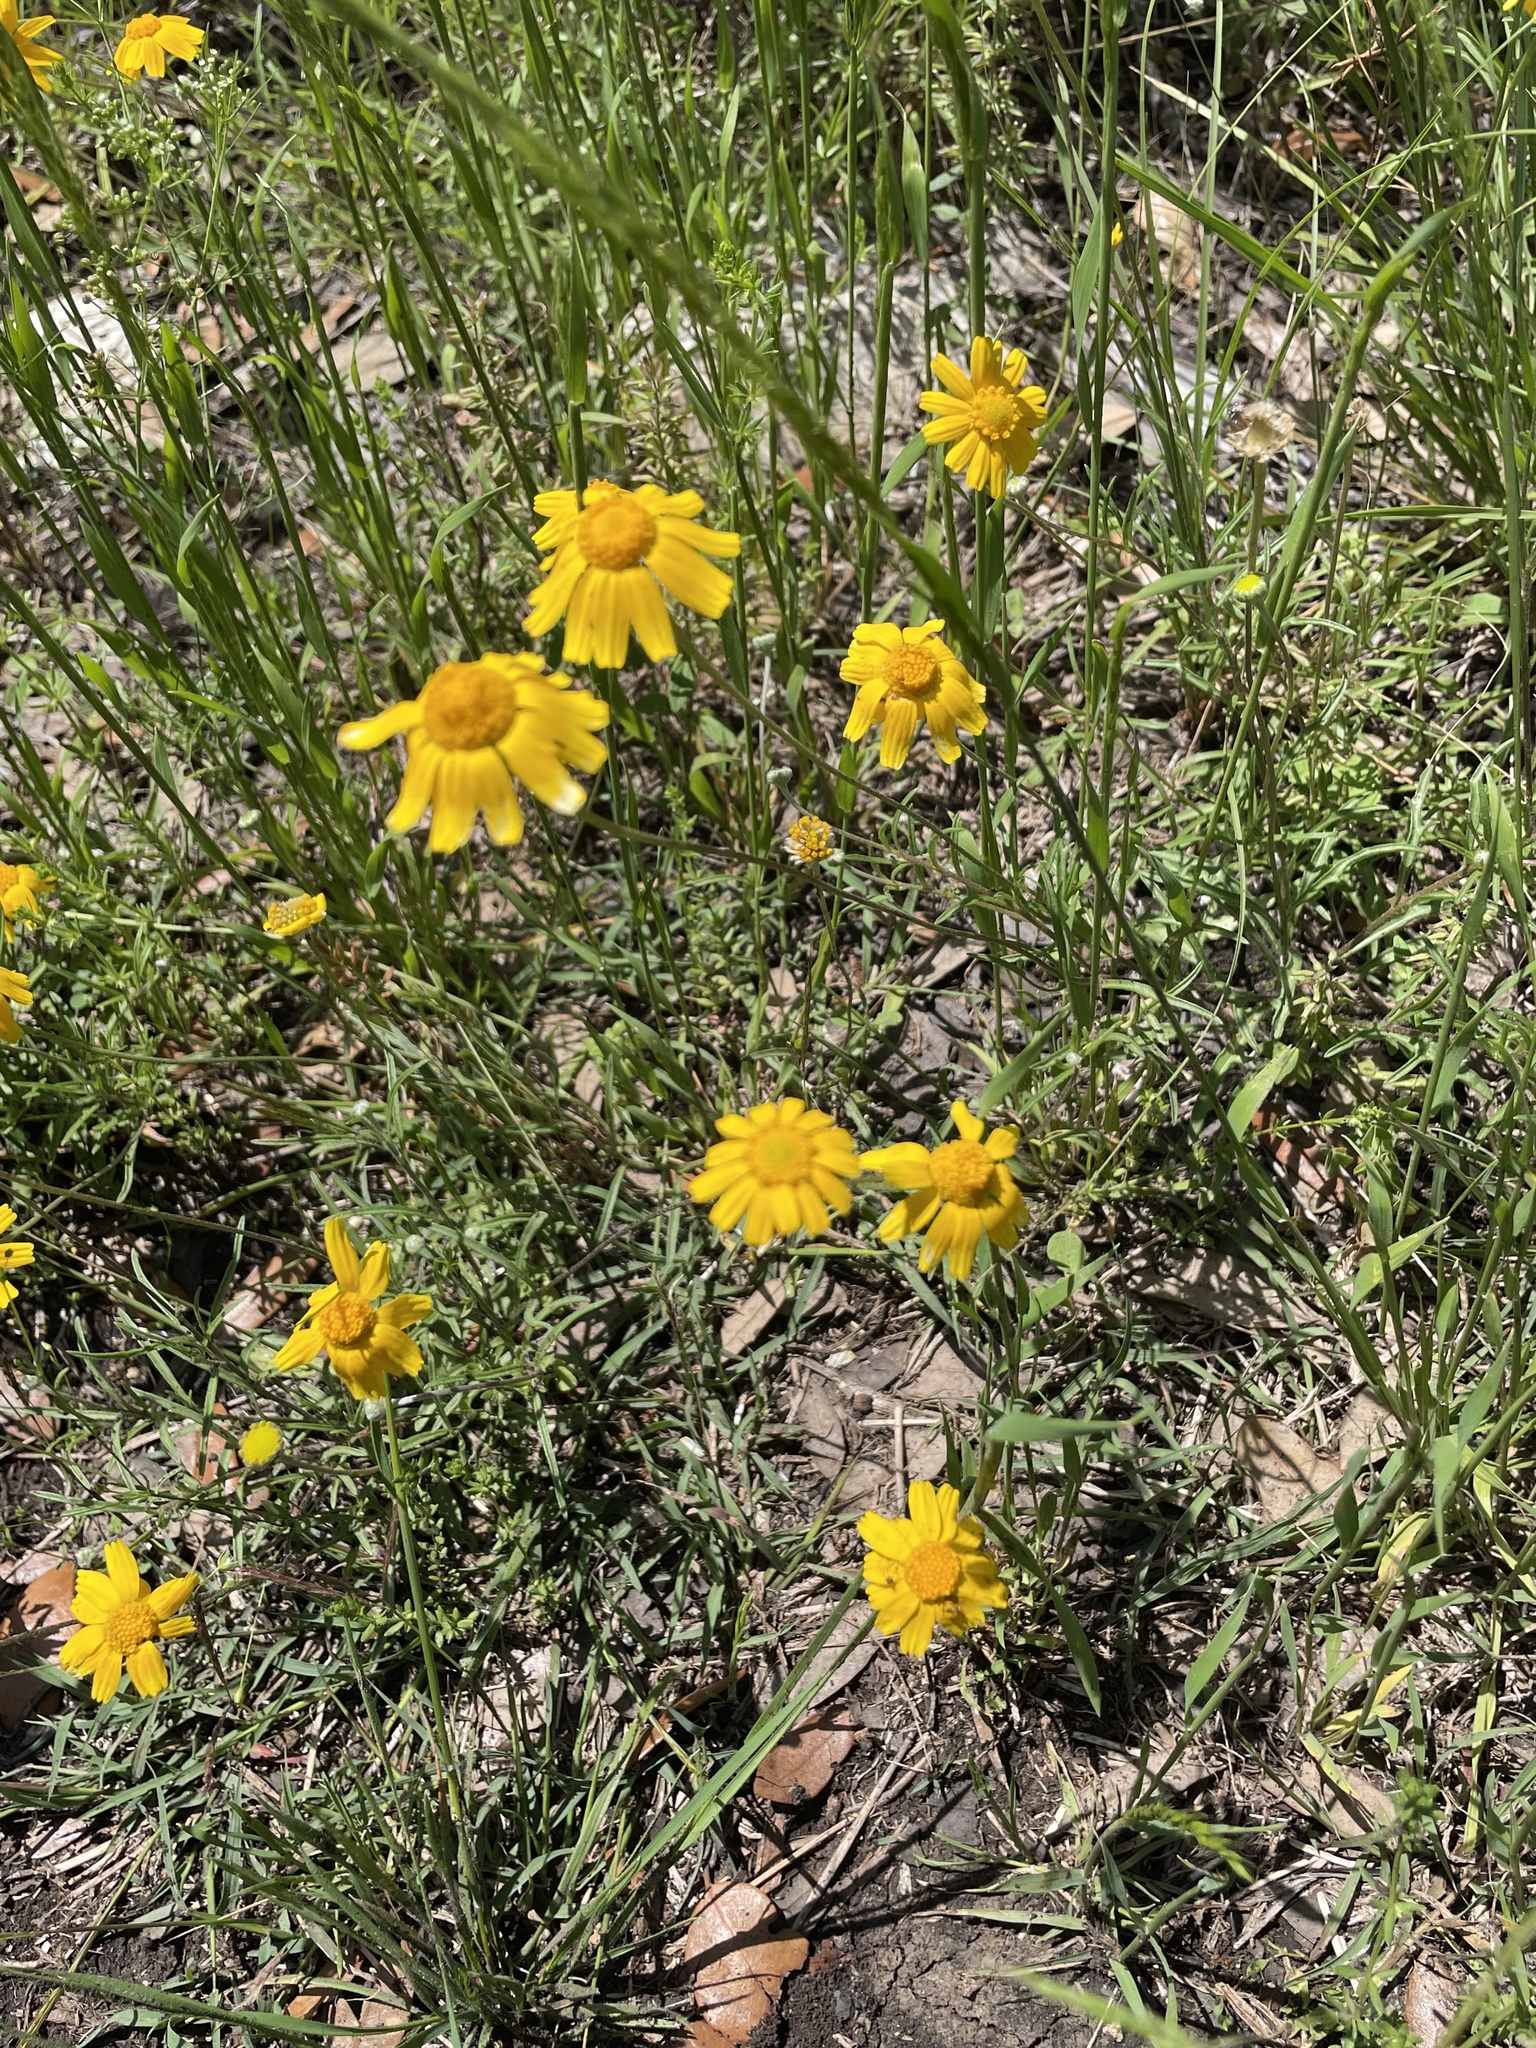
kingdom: Plantae
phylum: Tracheophyta
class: Magnoliopsida
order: Asterales
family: Asteraceae
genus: Tetraneuris
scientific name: Tetraneuris linearifolia
